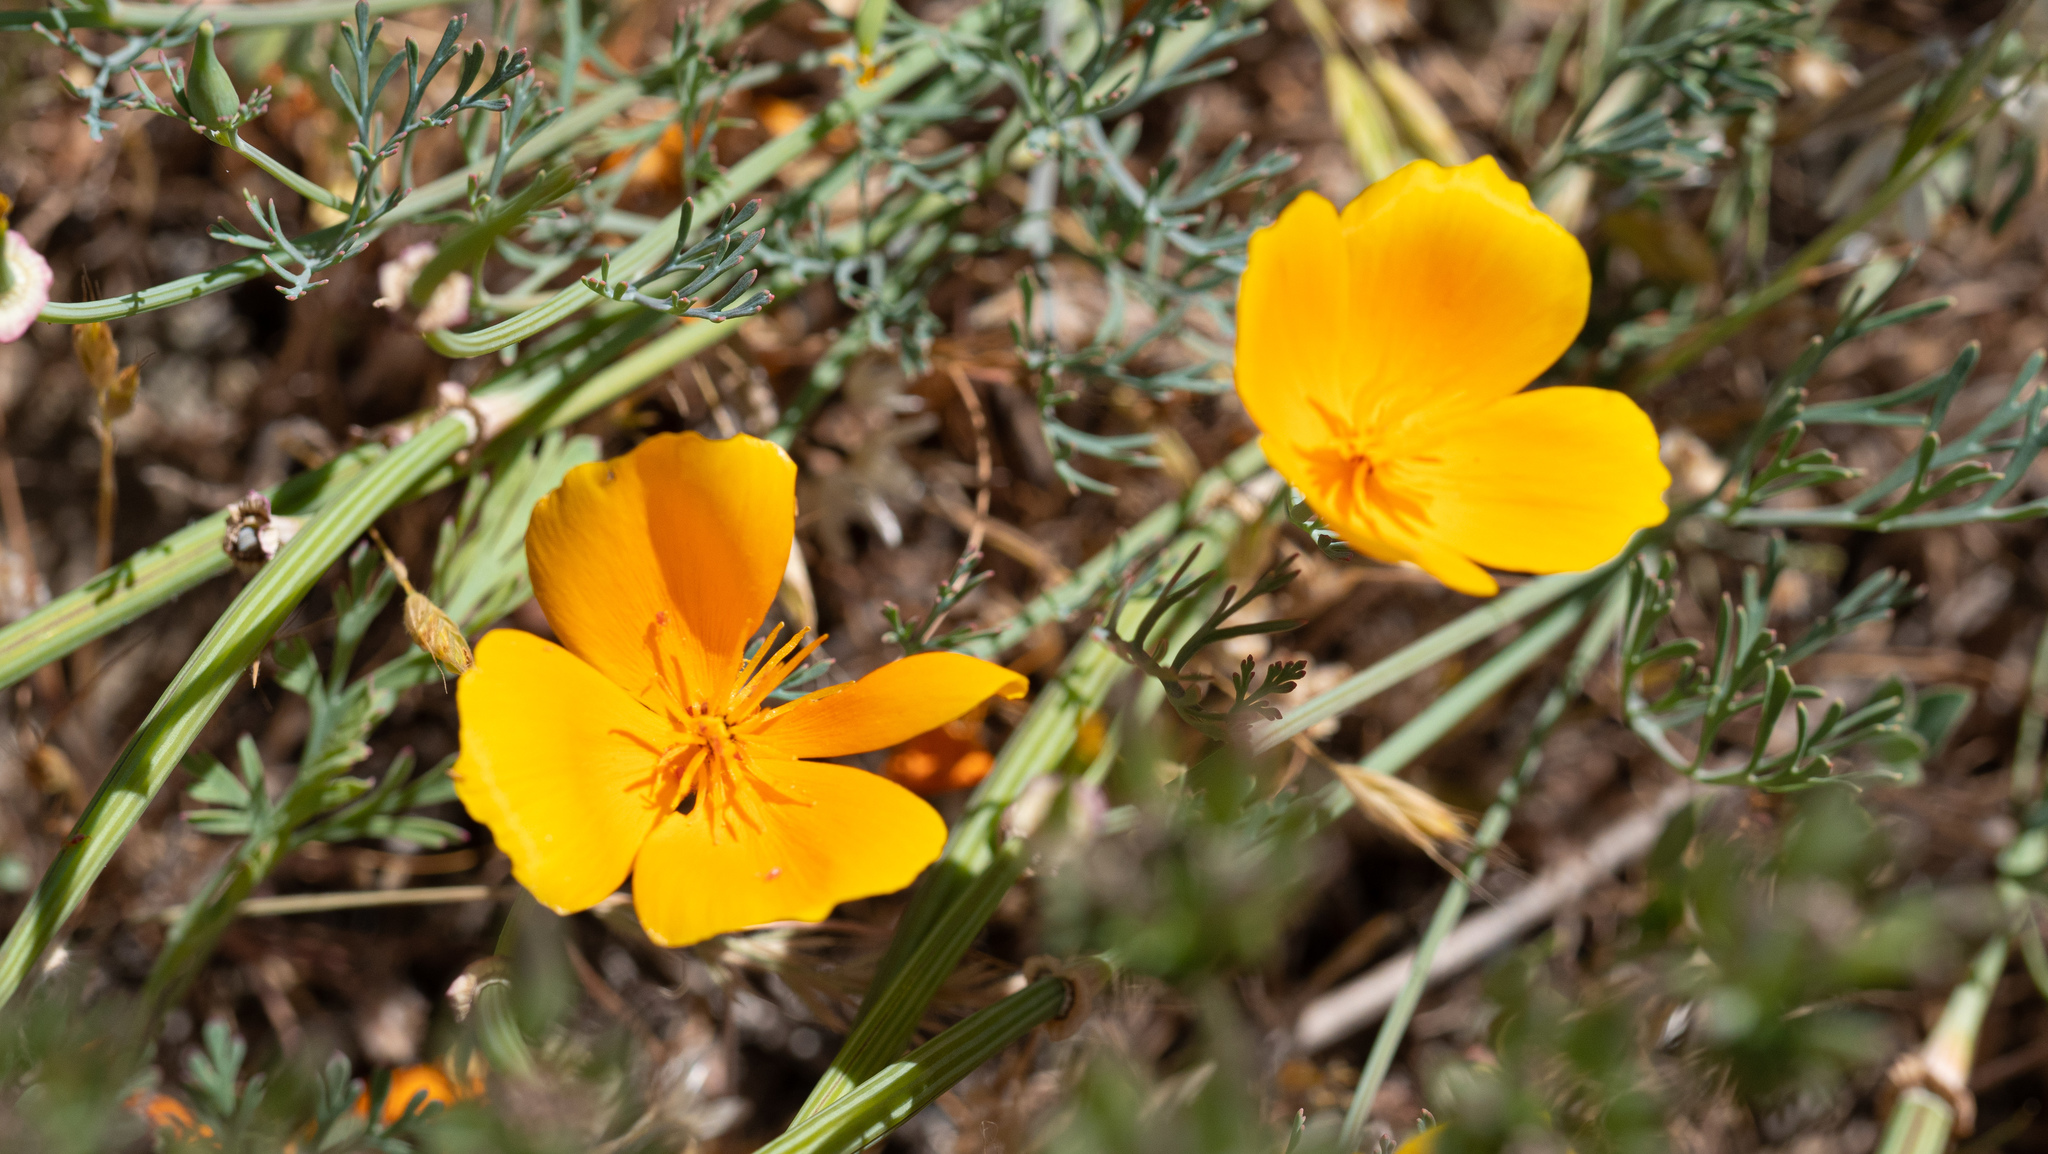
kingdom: Plantae
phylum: Tracheophyta
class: Magnoliopsida
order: Ranunculales
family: Papaveraceae
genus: Eschscholzia
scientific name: Eschscholzia californica
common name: California poppy
